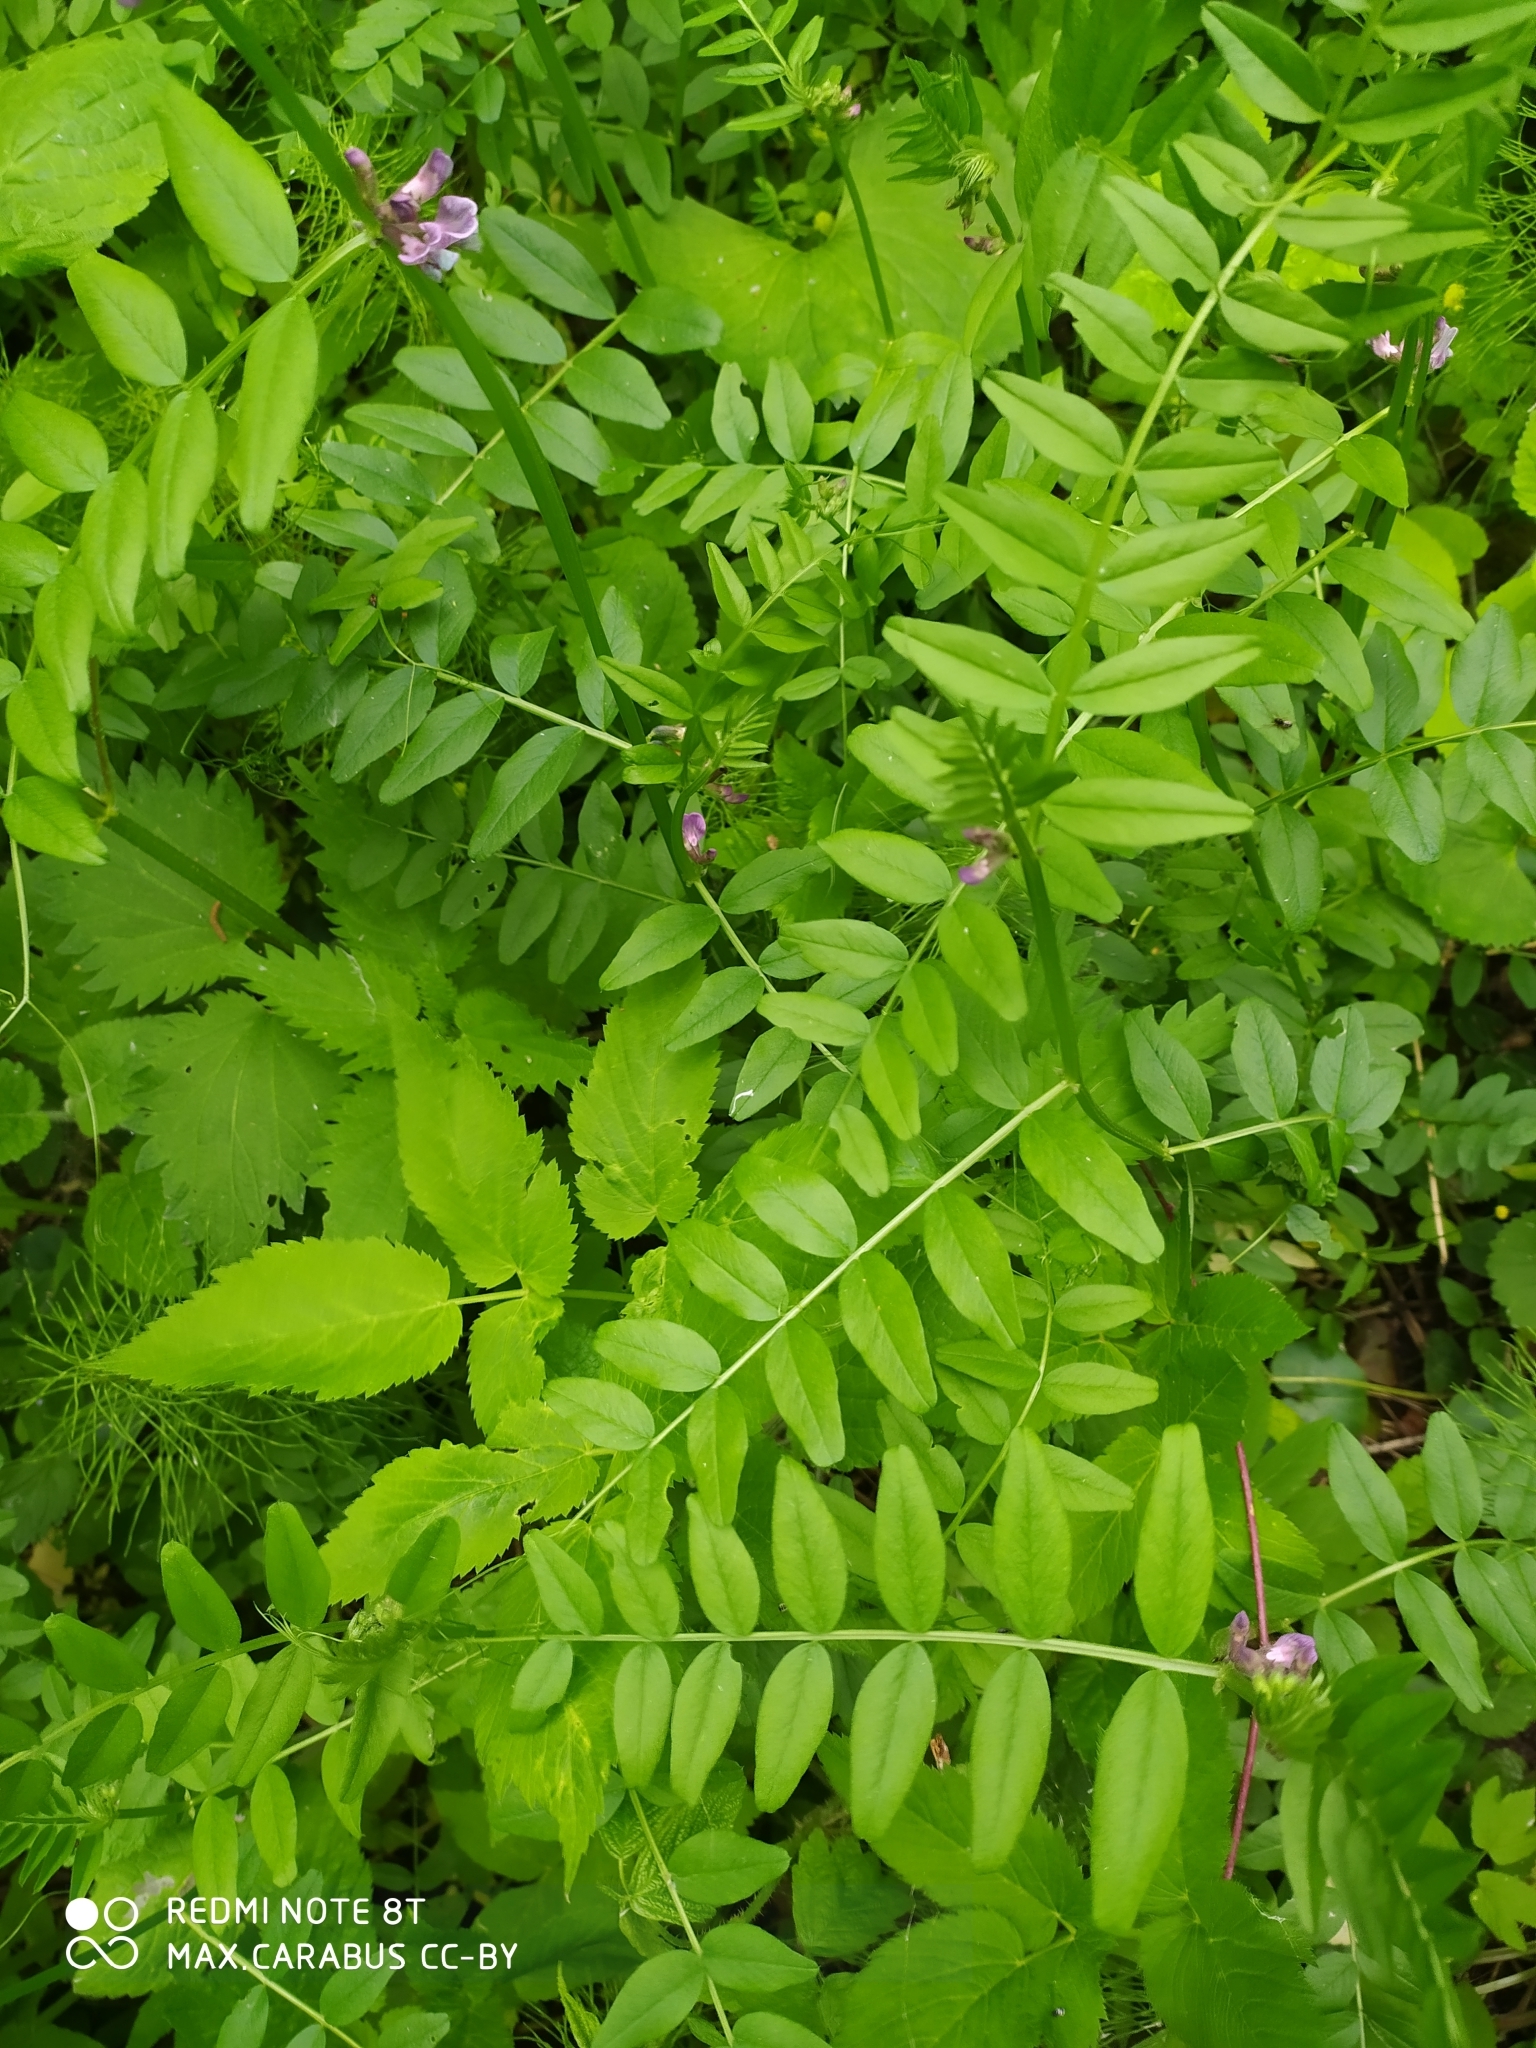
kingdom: Plantae
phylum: Tracheophyta
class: Magnoliopsida
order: Fabales
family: Fabaceae
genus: Vicia
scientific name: Vicia sepium
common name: Bush vetch
